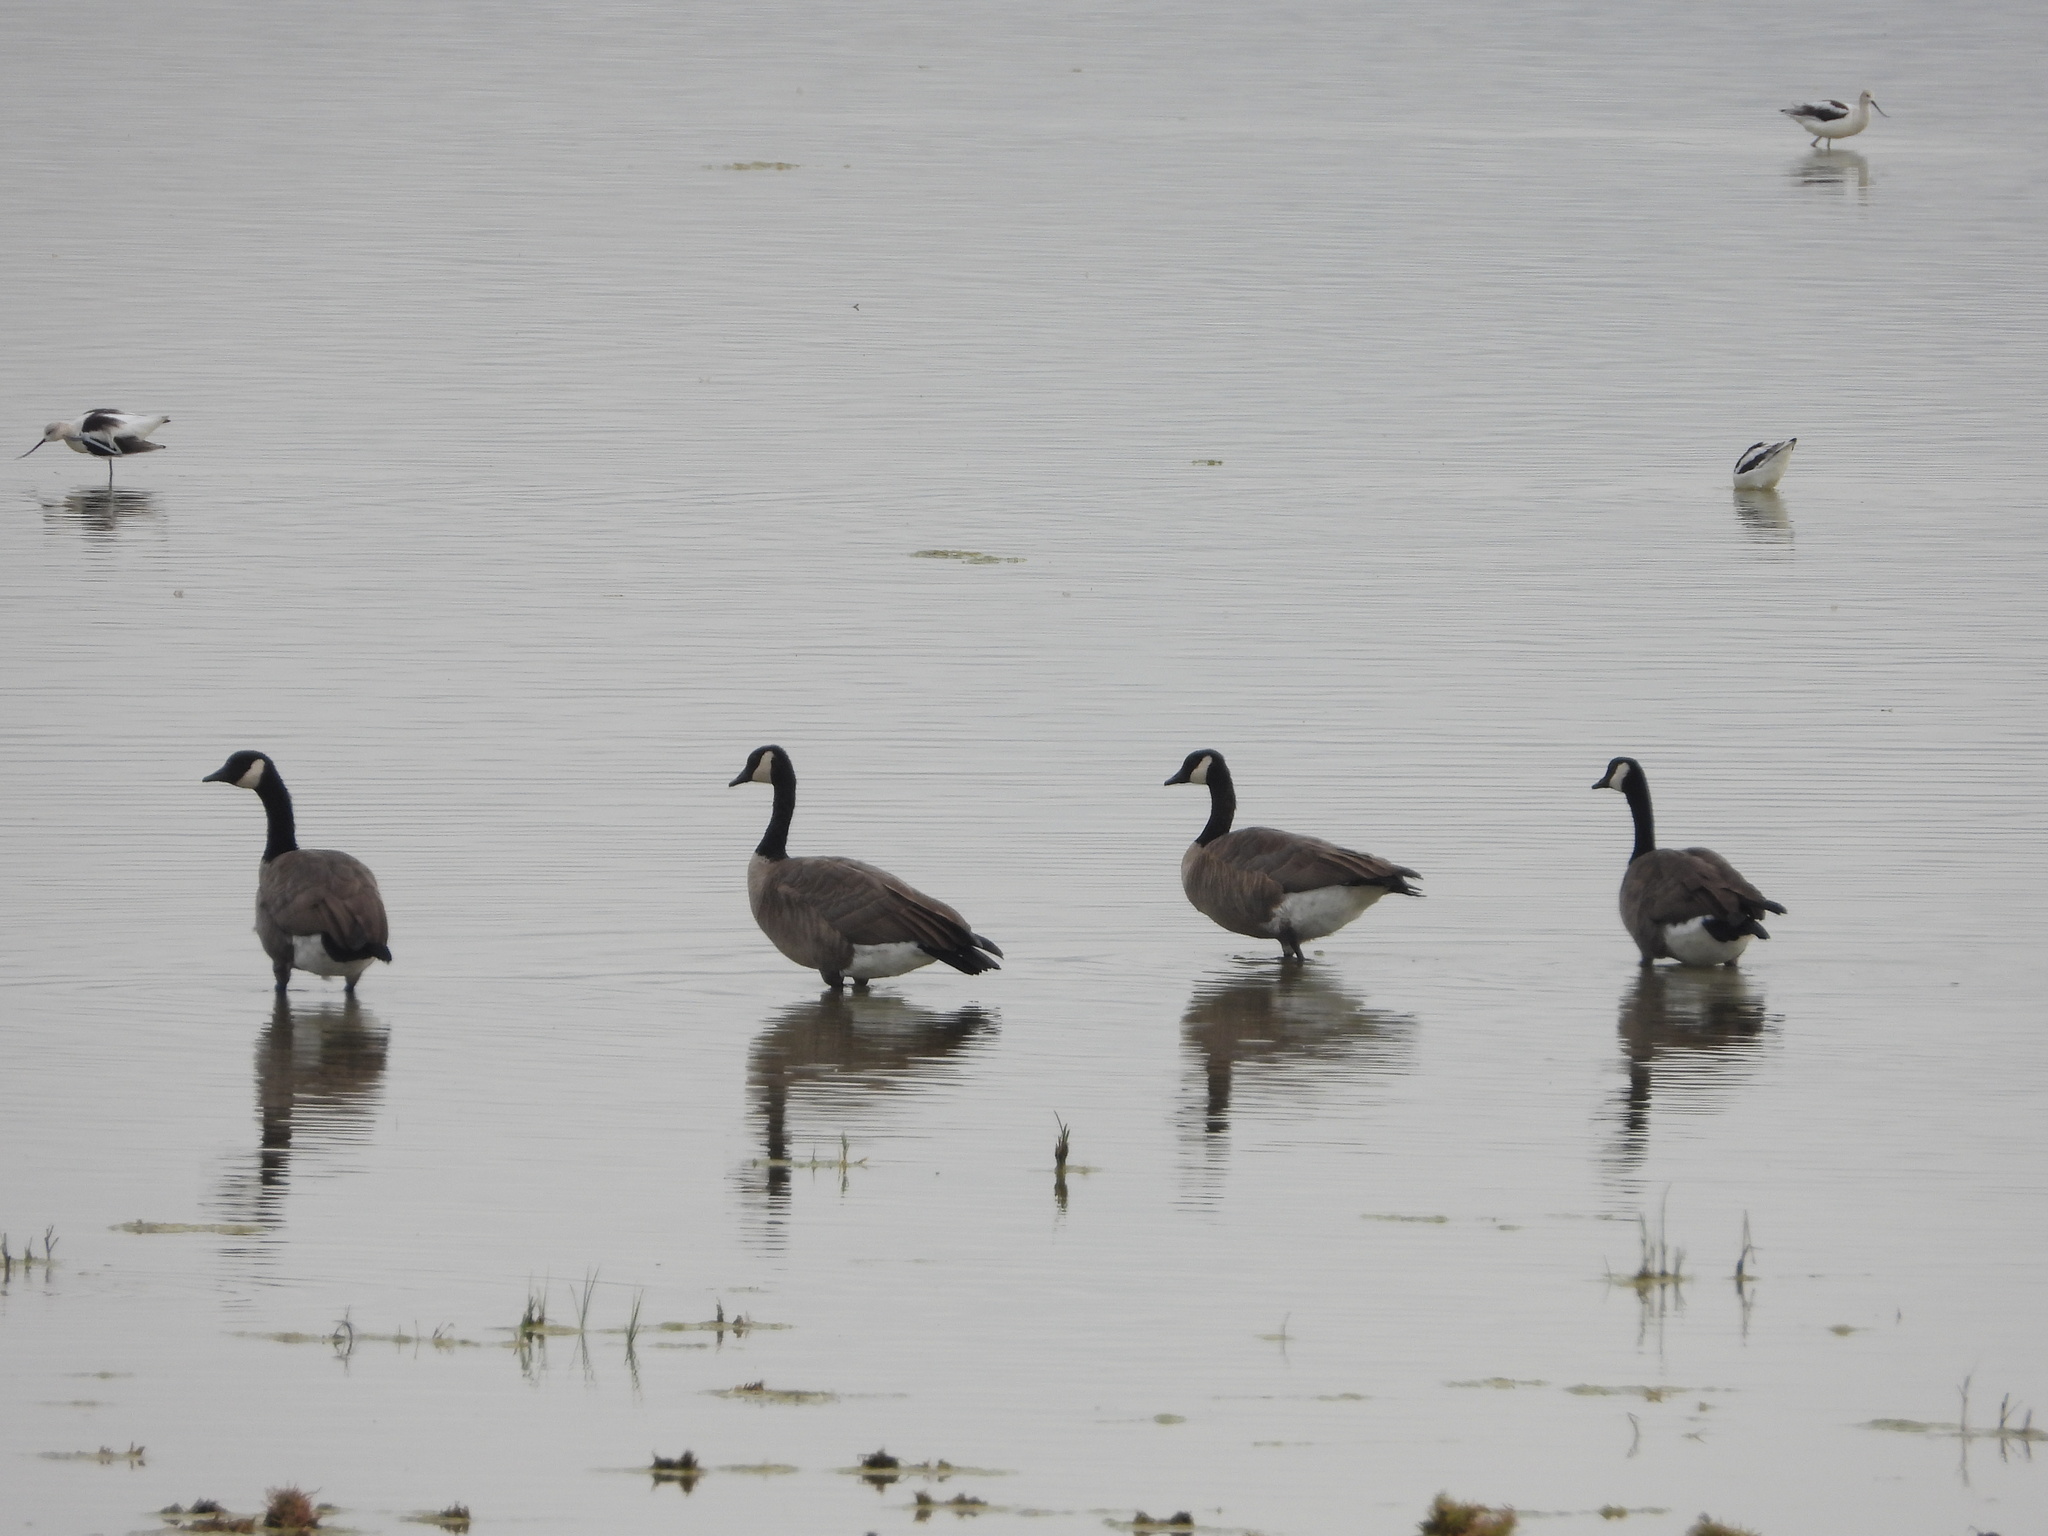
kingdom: Animalia
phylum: Chordata
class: Aves
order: Anseriformes
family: Anatidae
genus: Branta
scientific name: Branta canadensis
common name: Canada goose
